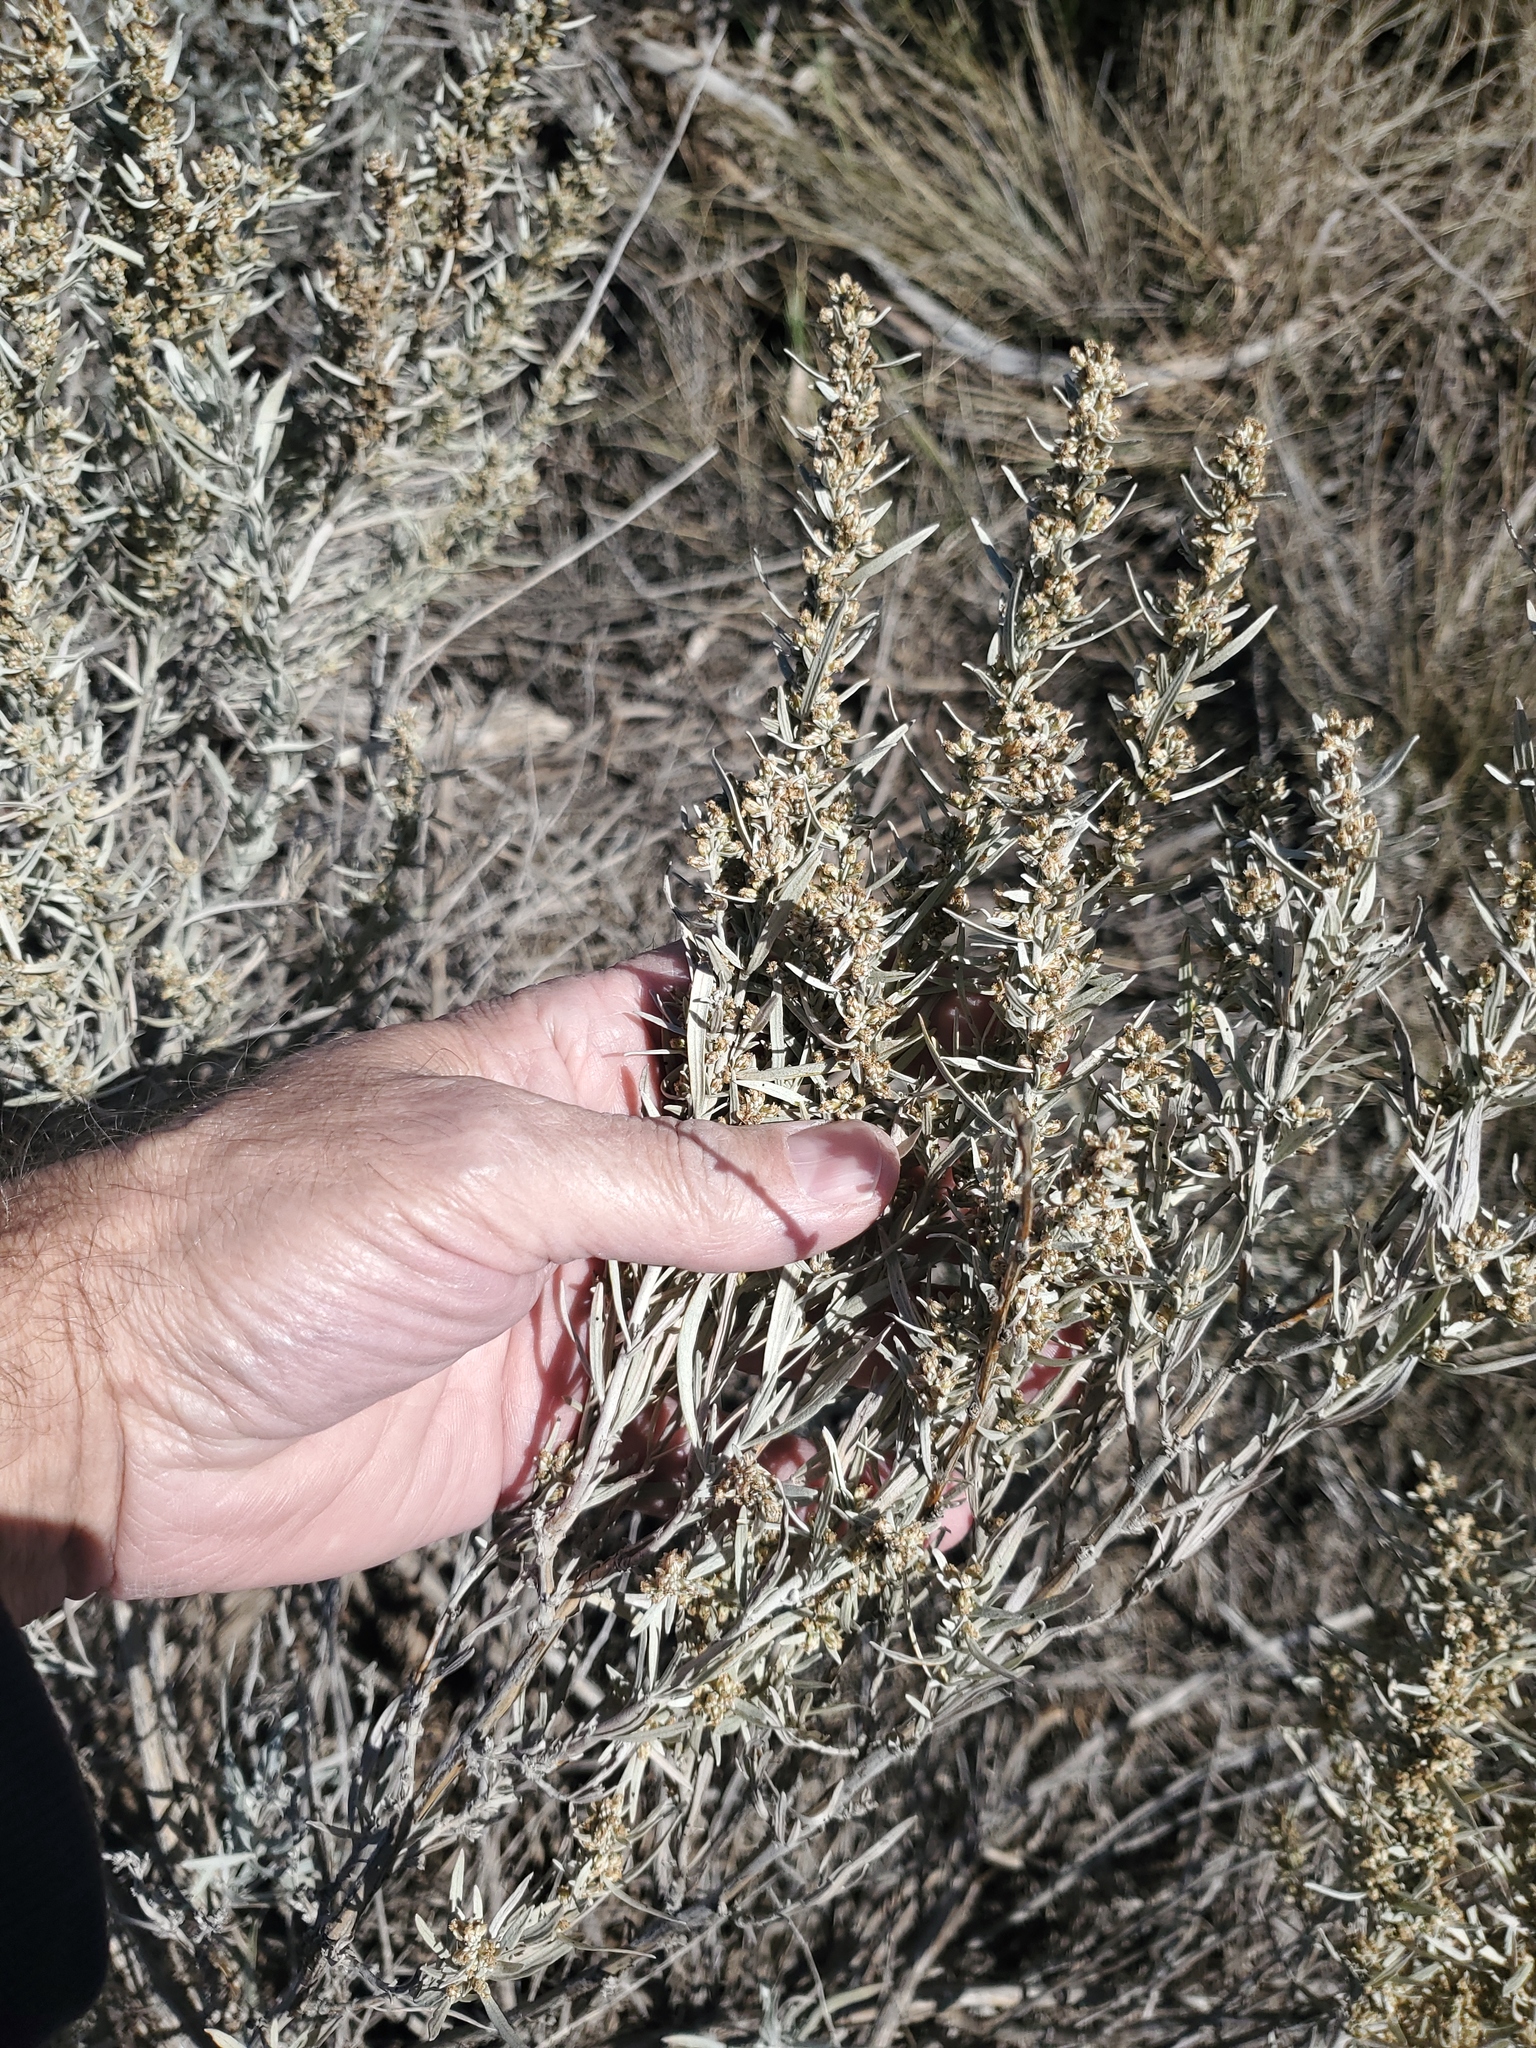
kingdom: Plantae
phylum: Tracheophyta
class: Magnoliopsida
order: Asterales
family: Asteraceae
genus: Artemisia
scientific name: Artemisia cana
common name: Silver sagebrush
